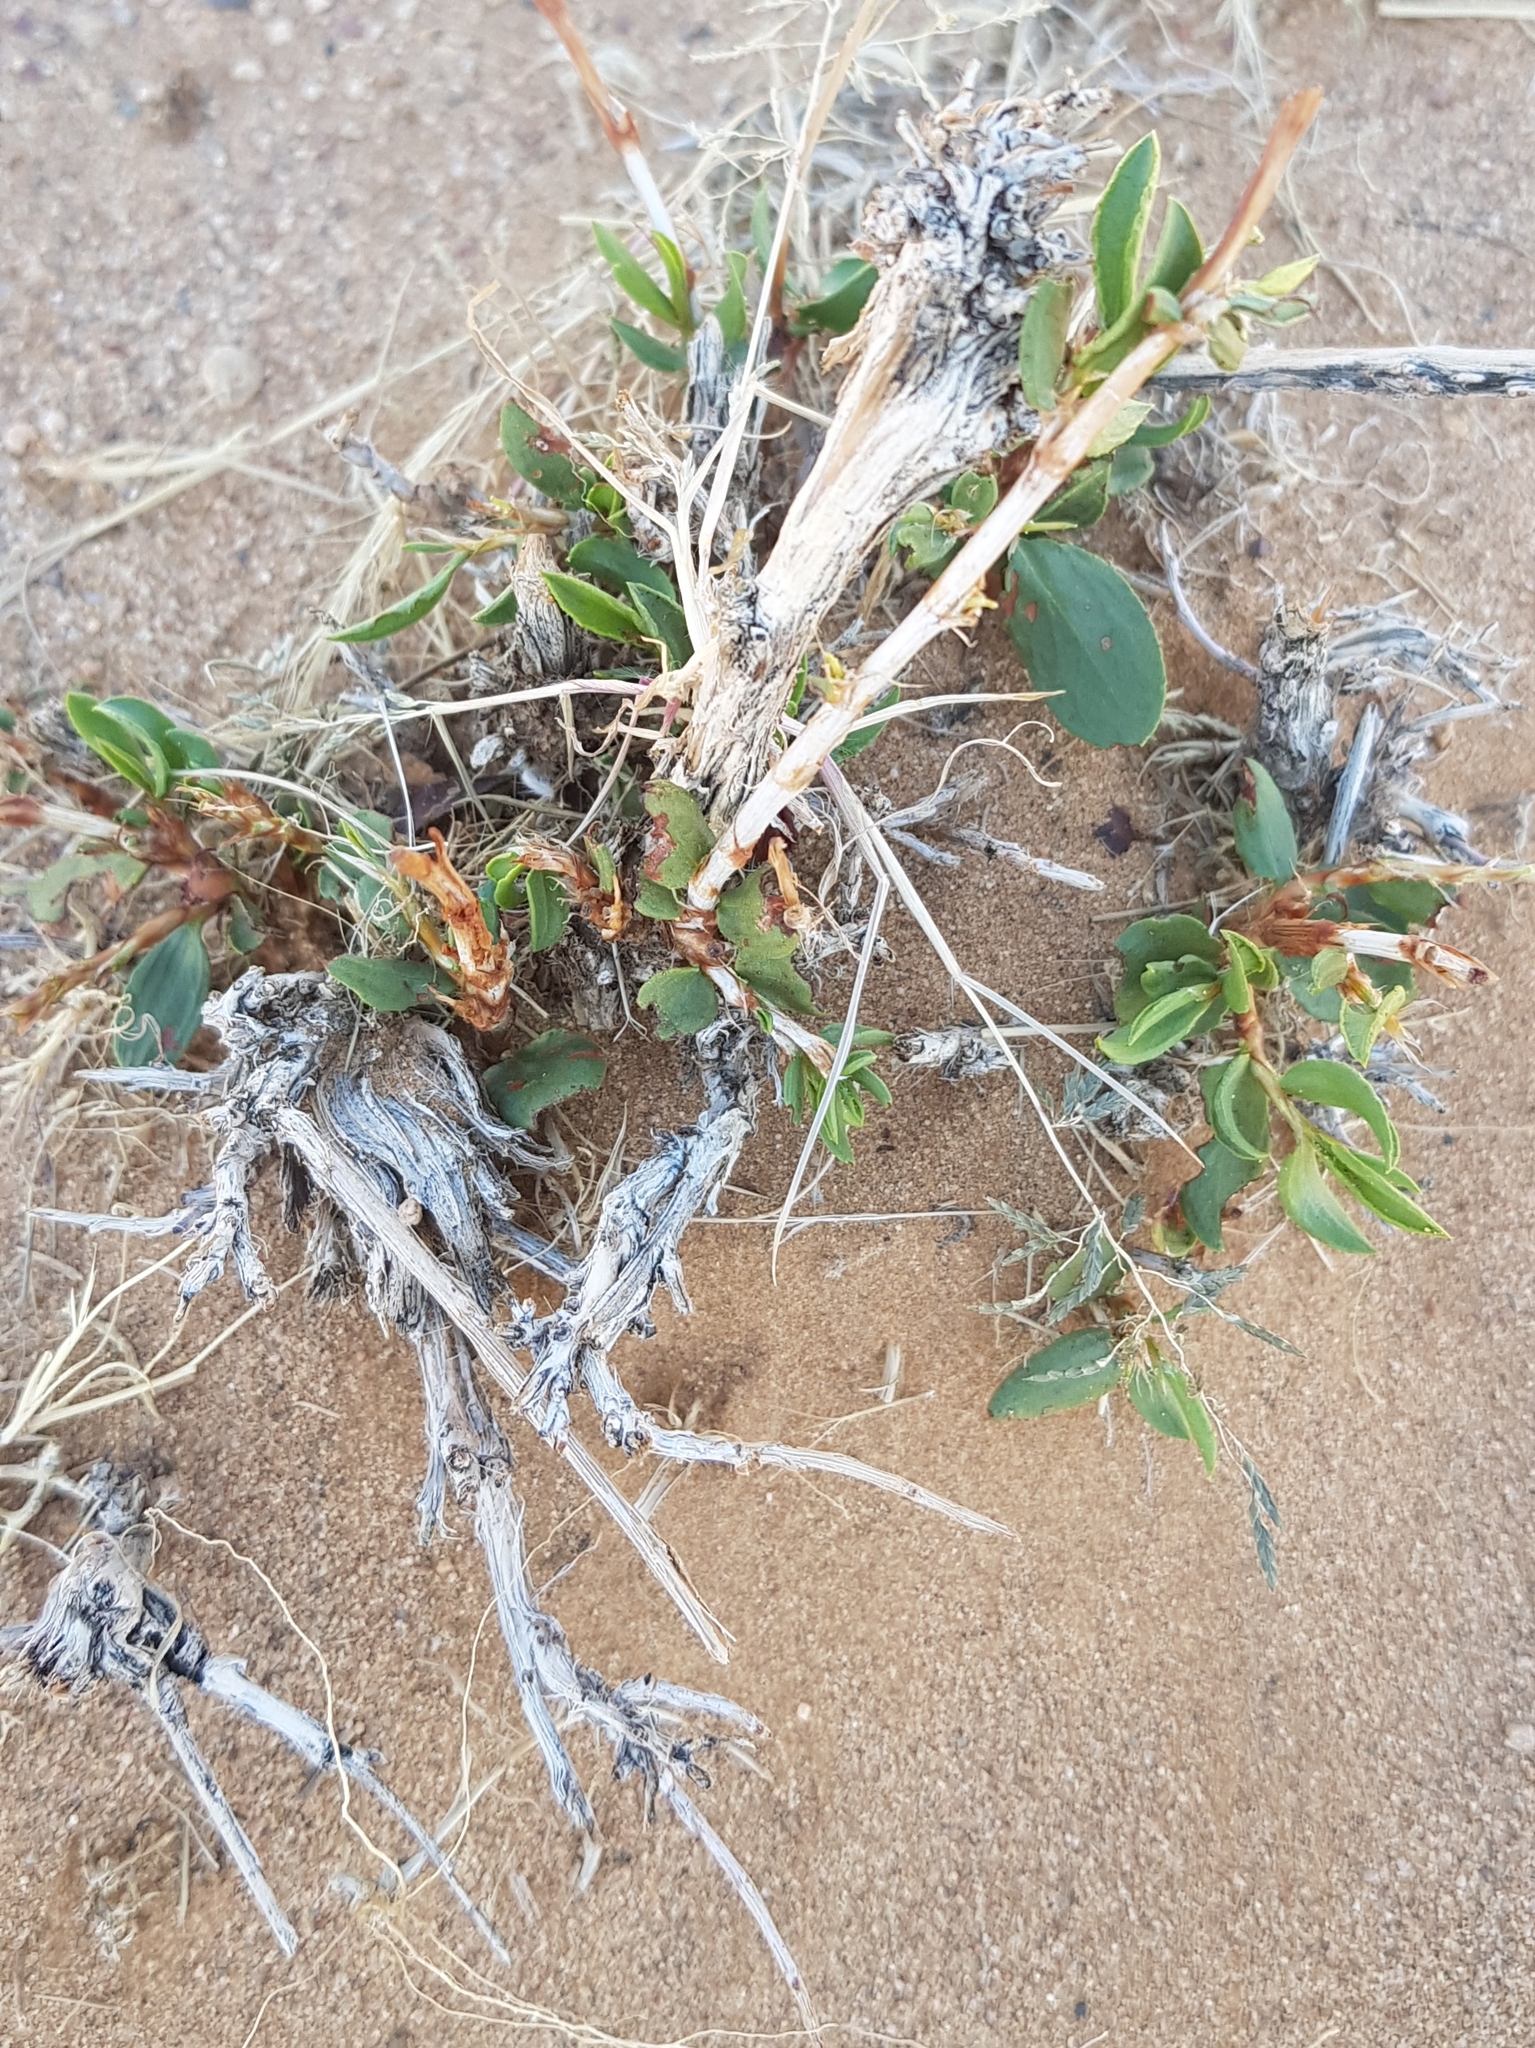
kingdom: Plantae
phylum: Tracheophyta
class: Magnoliopsida
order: Caryophyllales
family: Polygonaceae
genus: Atraphaxis
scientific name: Atraphaxis frutescens
